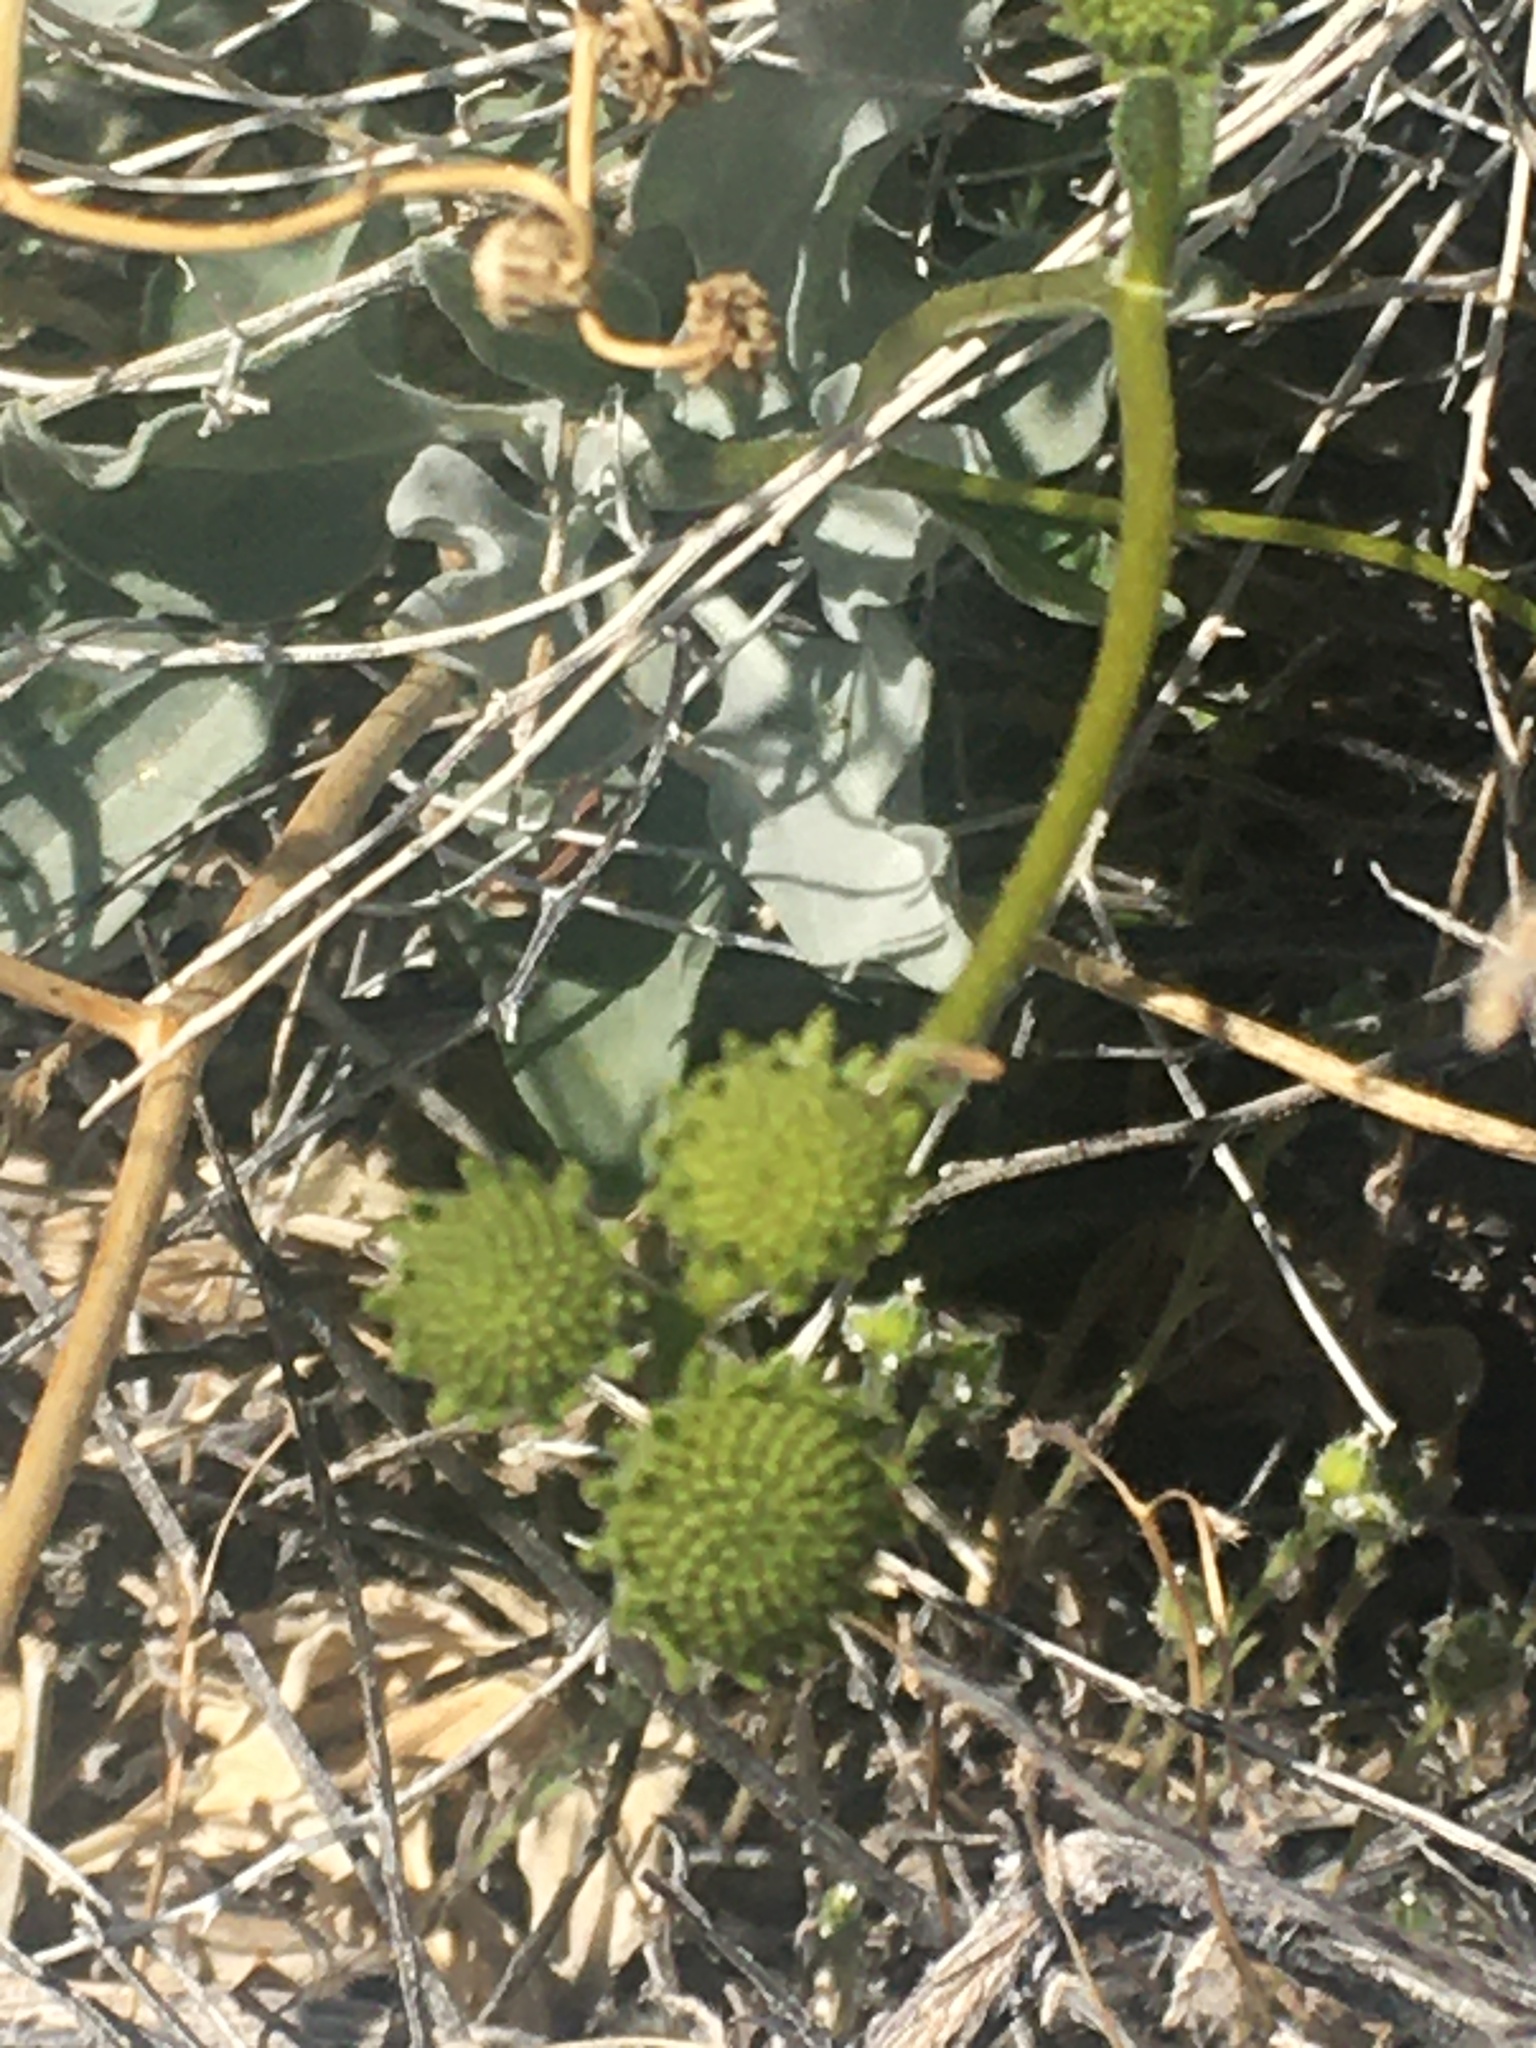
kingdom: Plantae
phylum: Tracheophyta
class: Magnoliopsida
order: Asterales
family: Asteraceae
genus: Encelia
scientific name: Encelia farinosa
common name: Brittlebush
